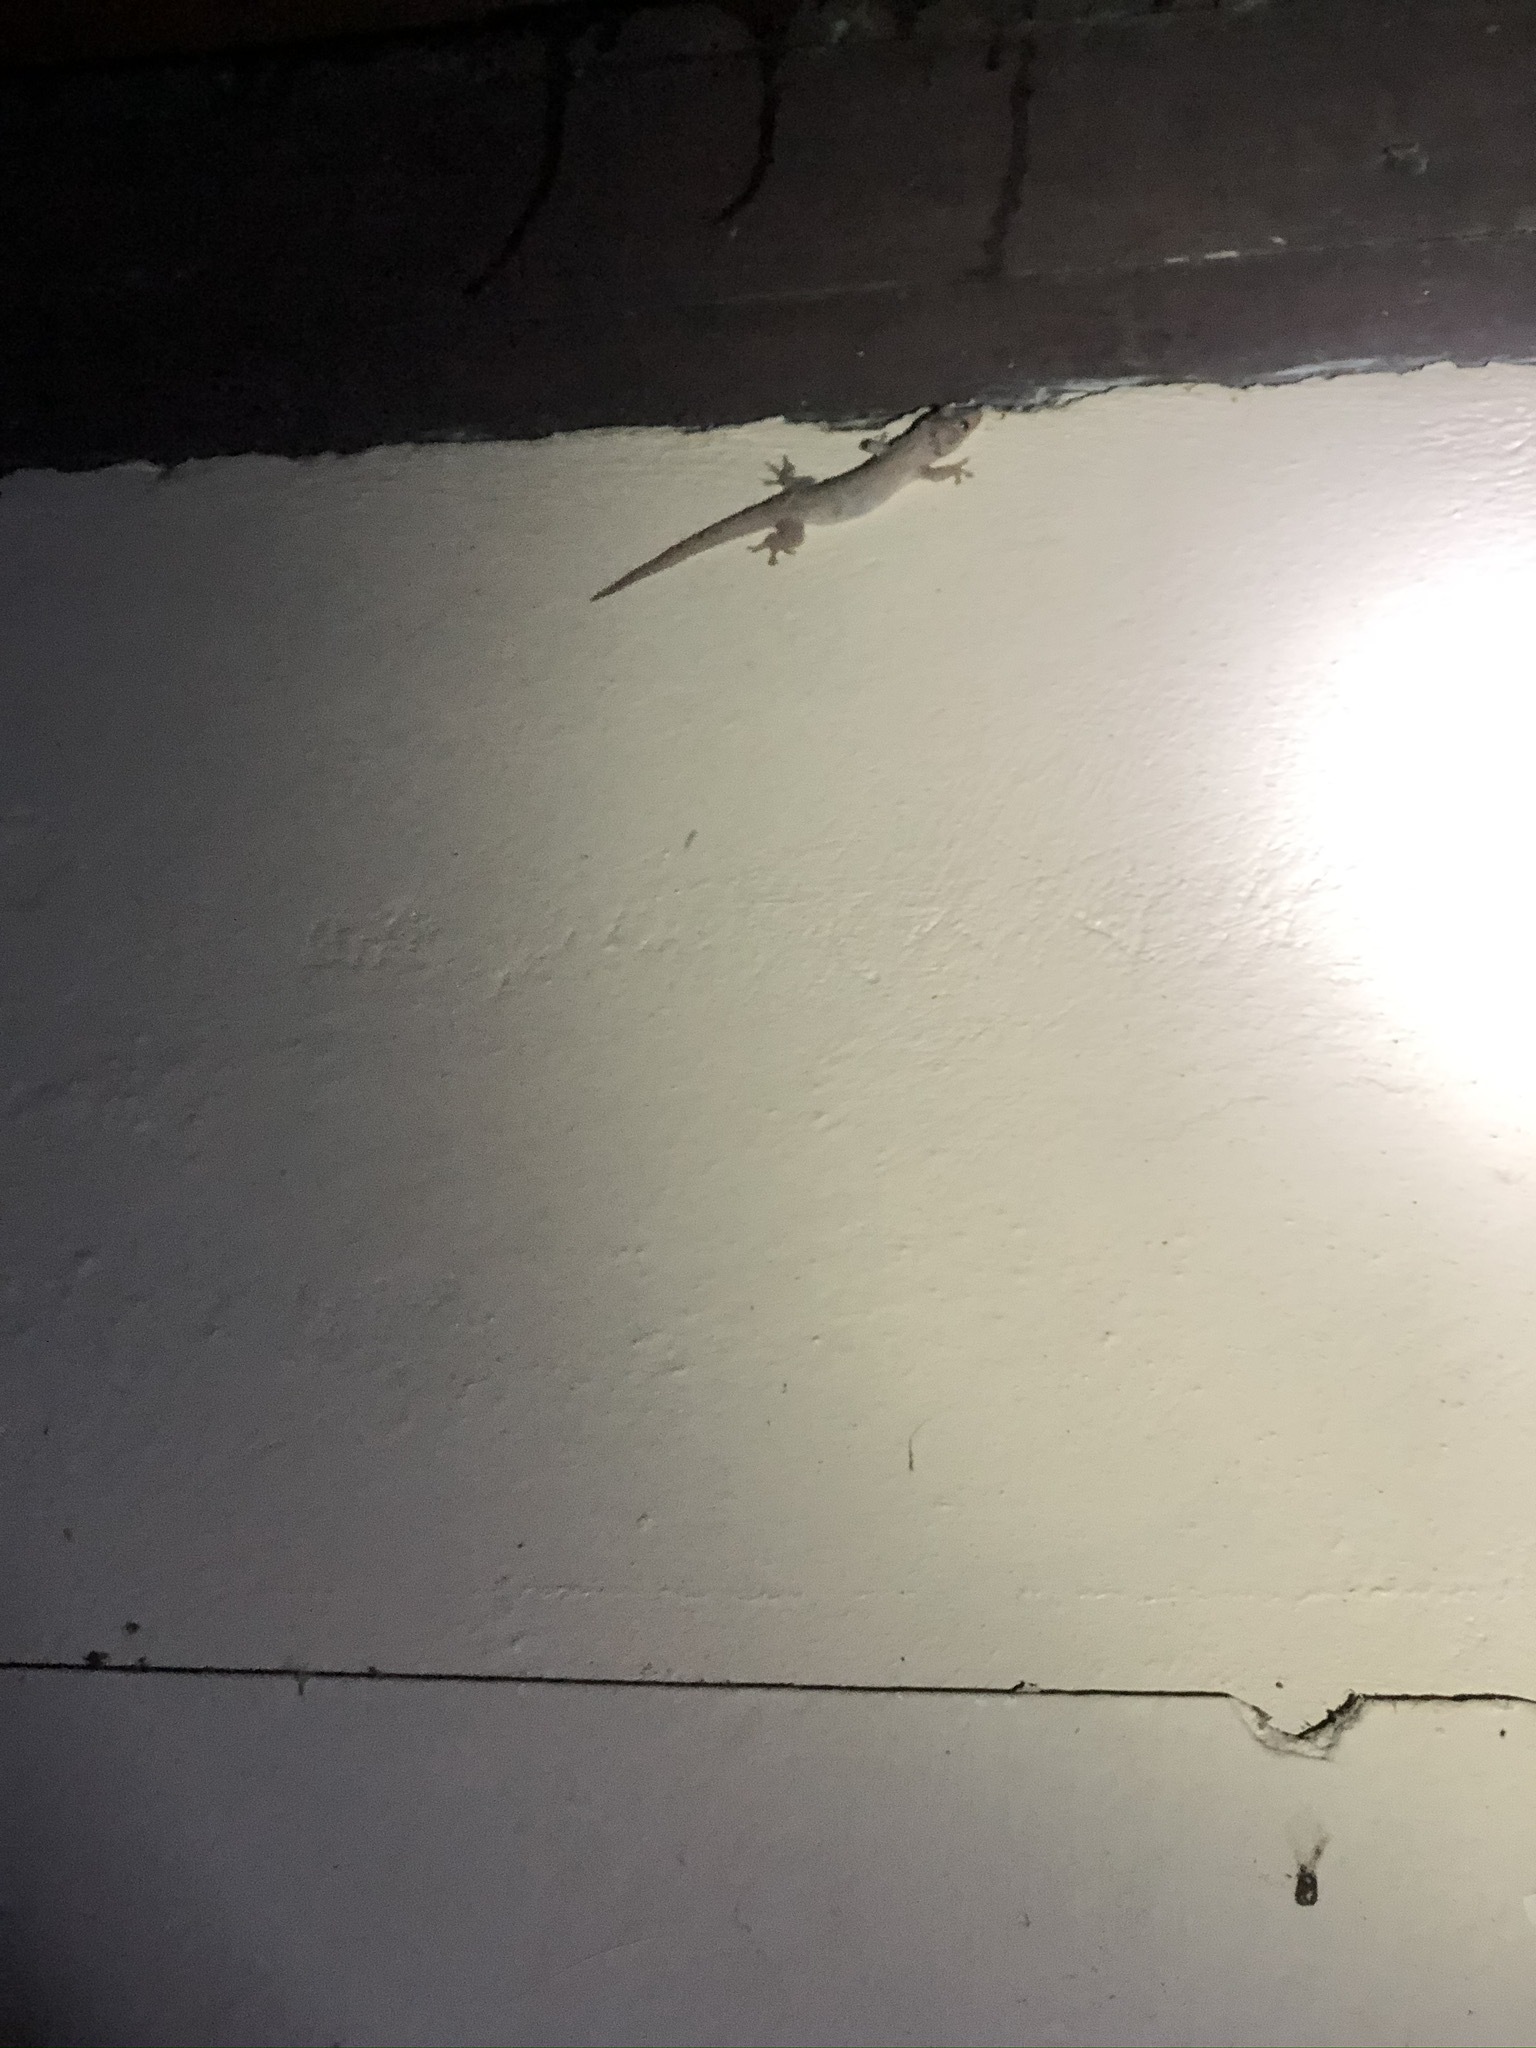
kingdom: Animalia
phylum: Chordata
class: Squamata
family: Gekkonidae
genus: Hemidactylus
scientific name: Hemidactylus frenatus
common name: Common house gecko
